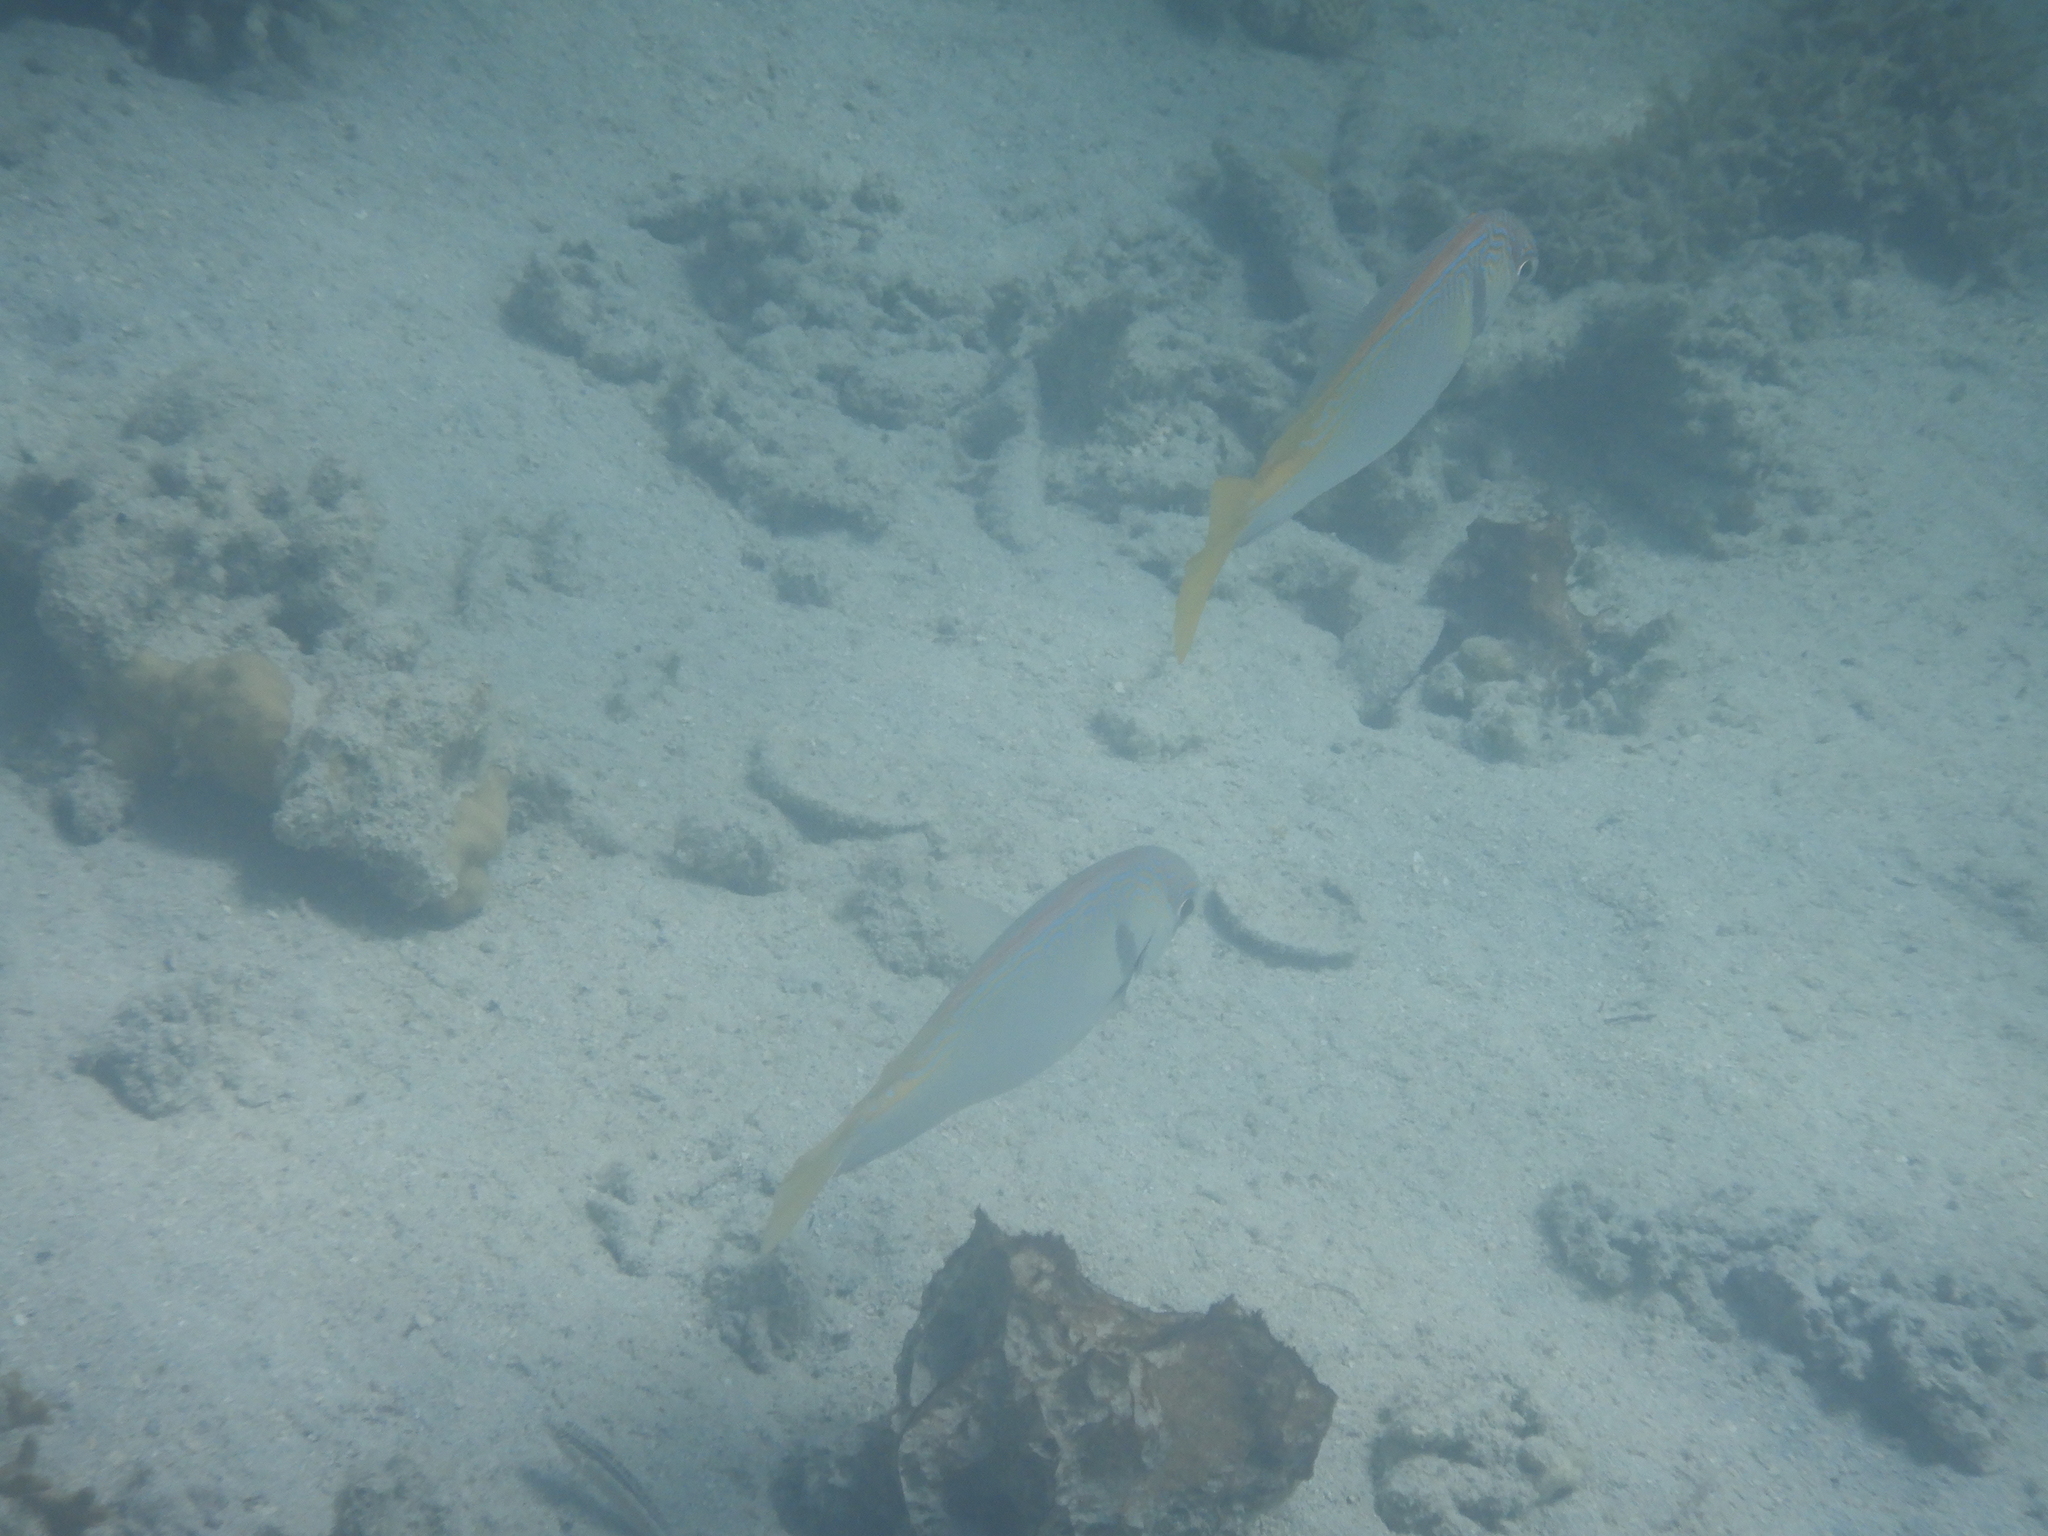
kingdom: Animalia
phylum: Chordata
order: Perciformes
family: Siganidae
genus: Siganus
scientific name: Siganus doliatus
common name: Barred spinefoot
